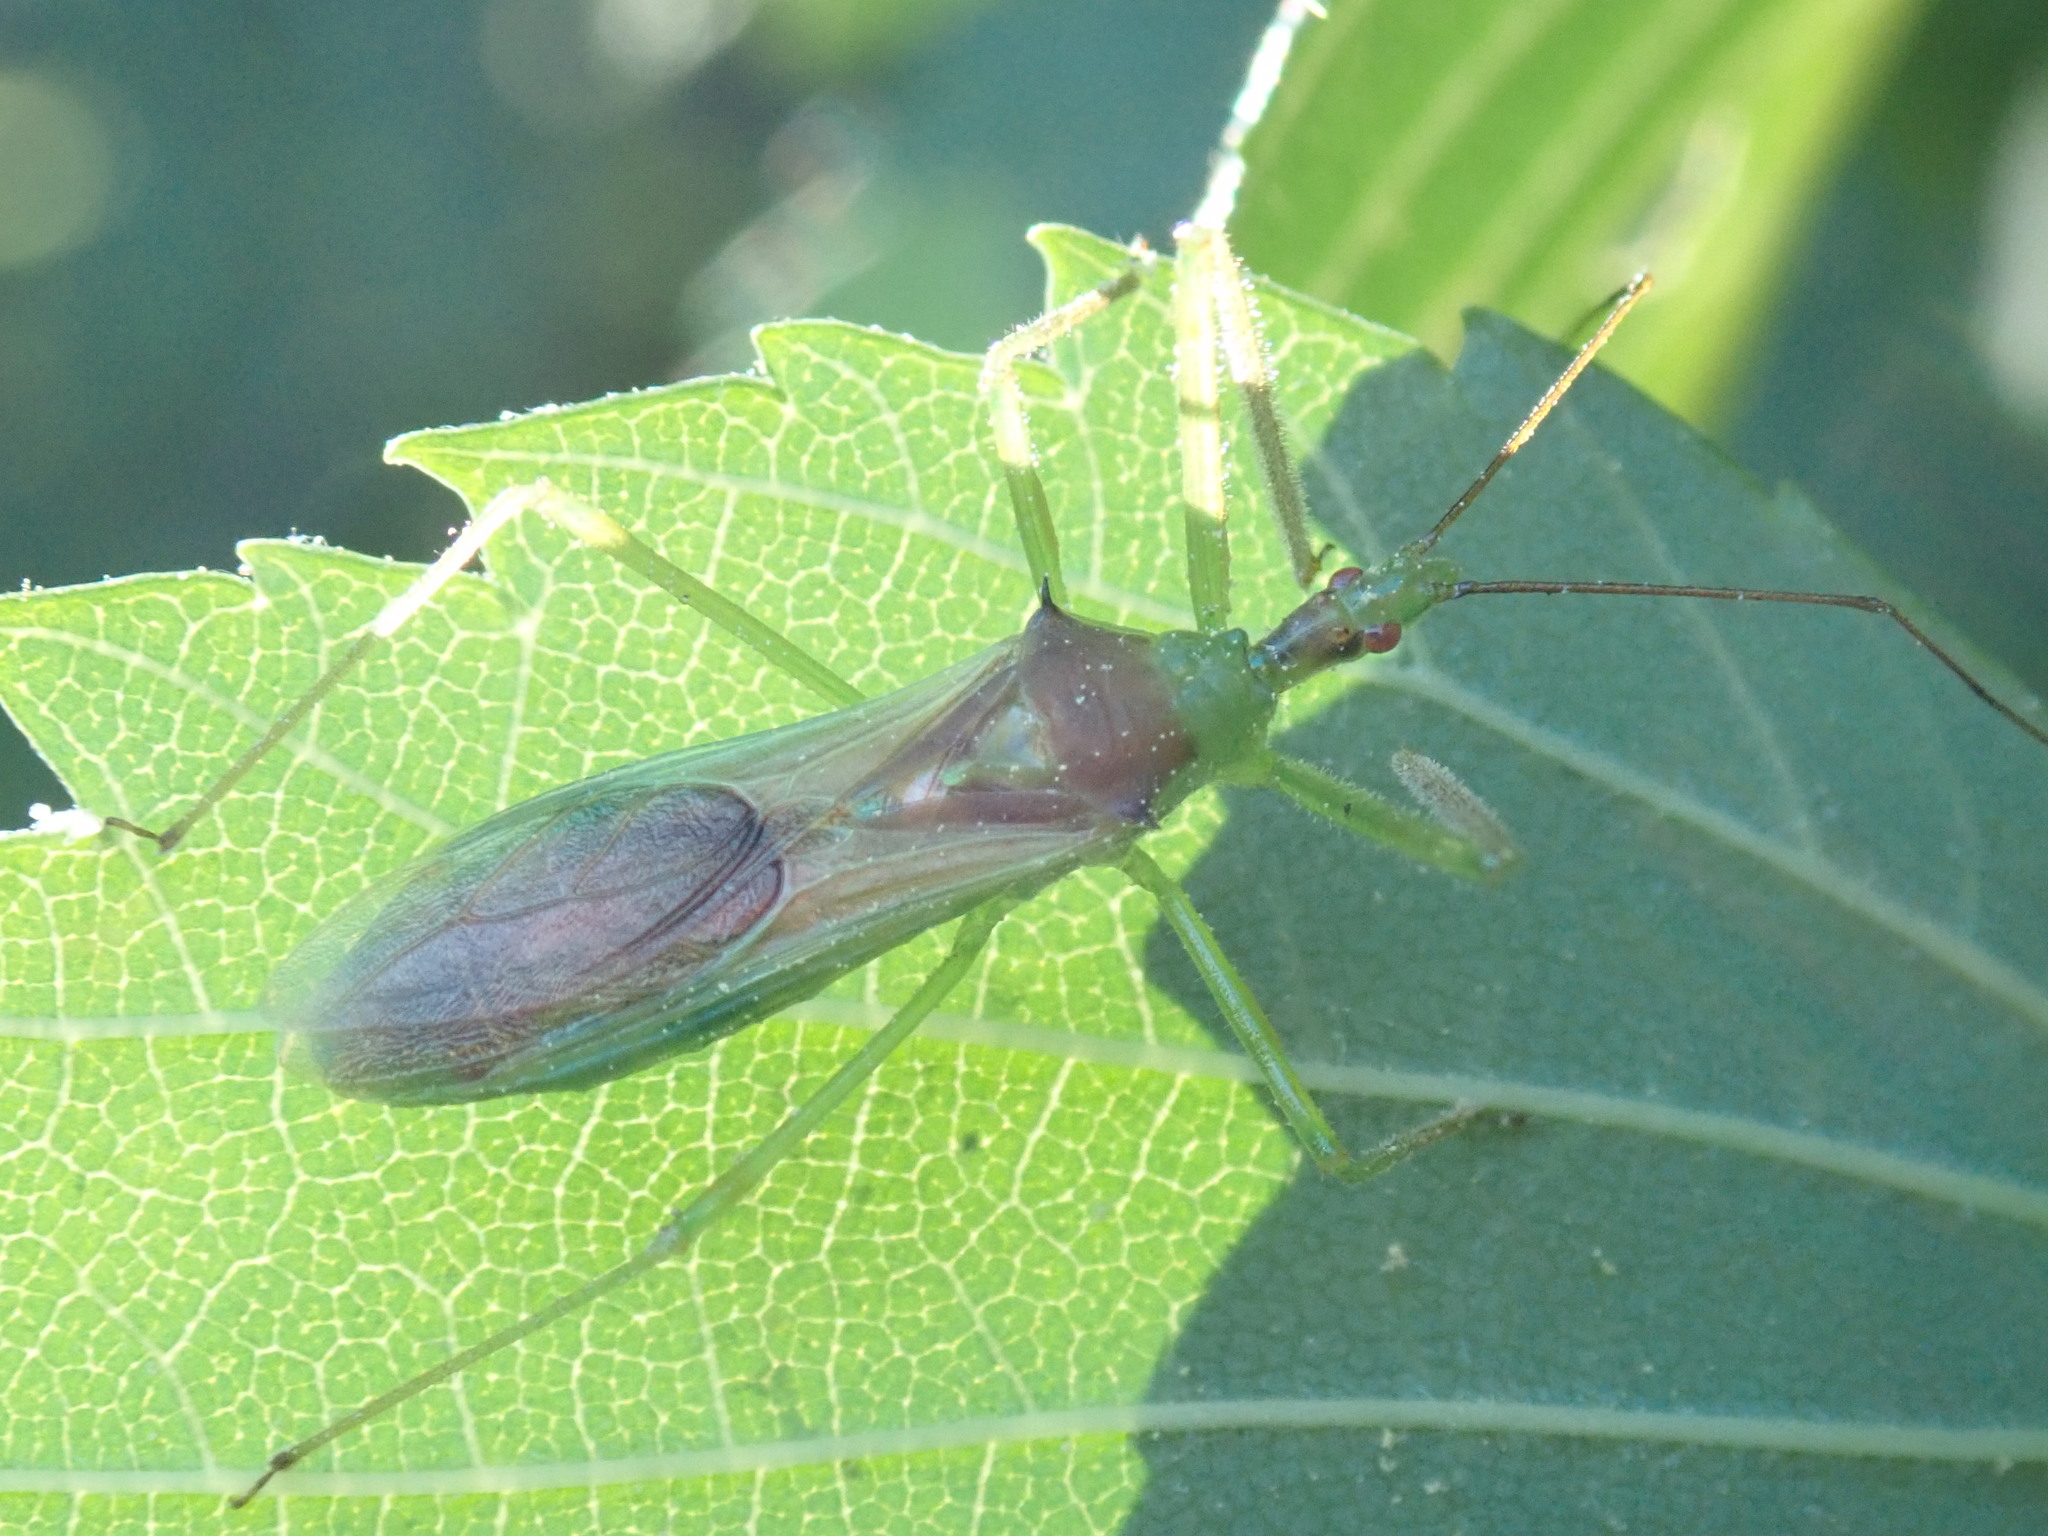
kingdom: Animalia
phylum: Arthropoda
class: Insecta
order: Hemiptera
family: Reduviidae
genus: Zelus
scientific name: Zelus luridus
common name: Pale green assassin bug
